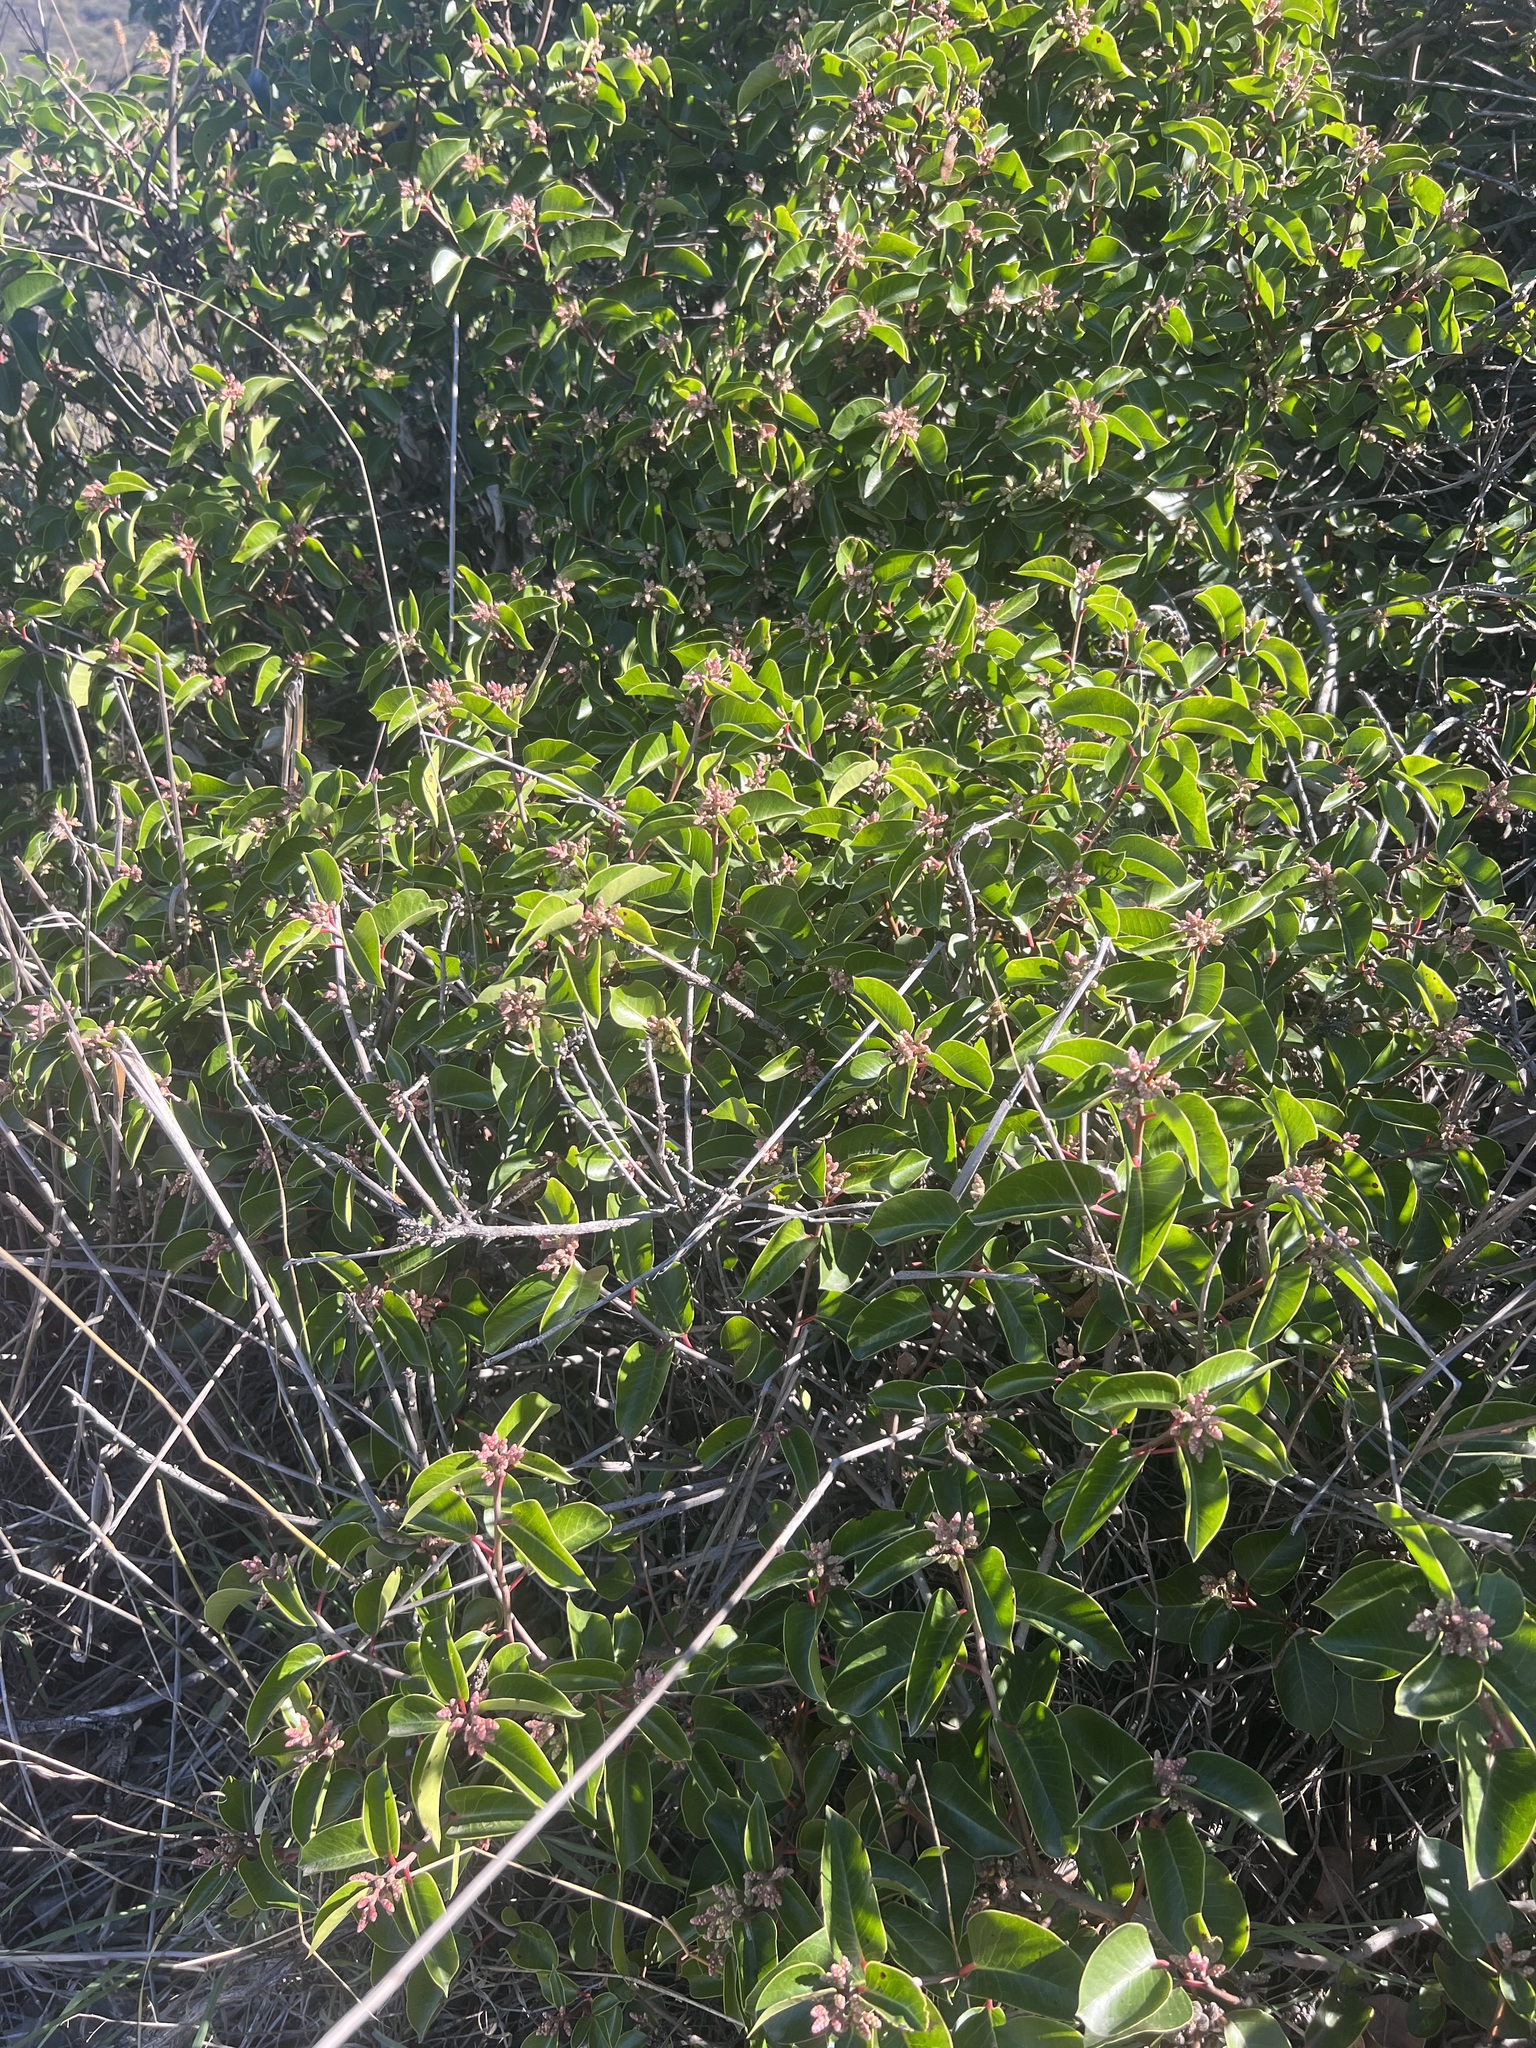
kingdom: Plantae
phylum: Tracheophyta
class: Magnoliopsida
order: Sapindales
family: Anacardiaceae
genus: Rhus
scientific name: Rhus ovata
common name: Sugar sumac
